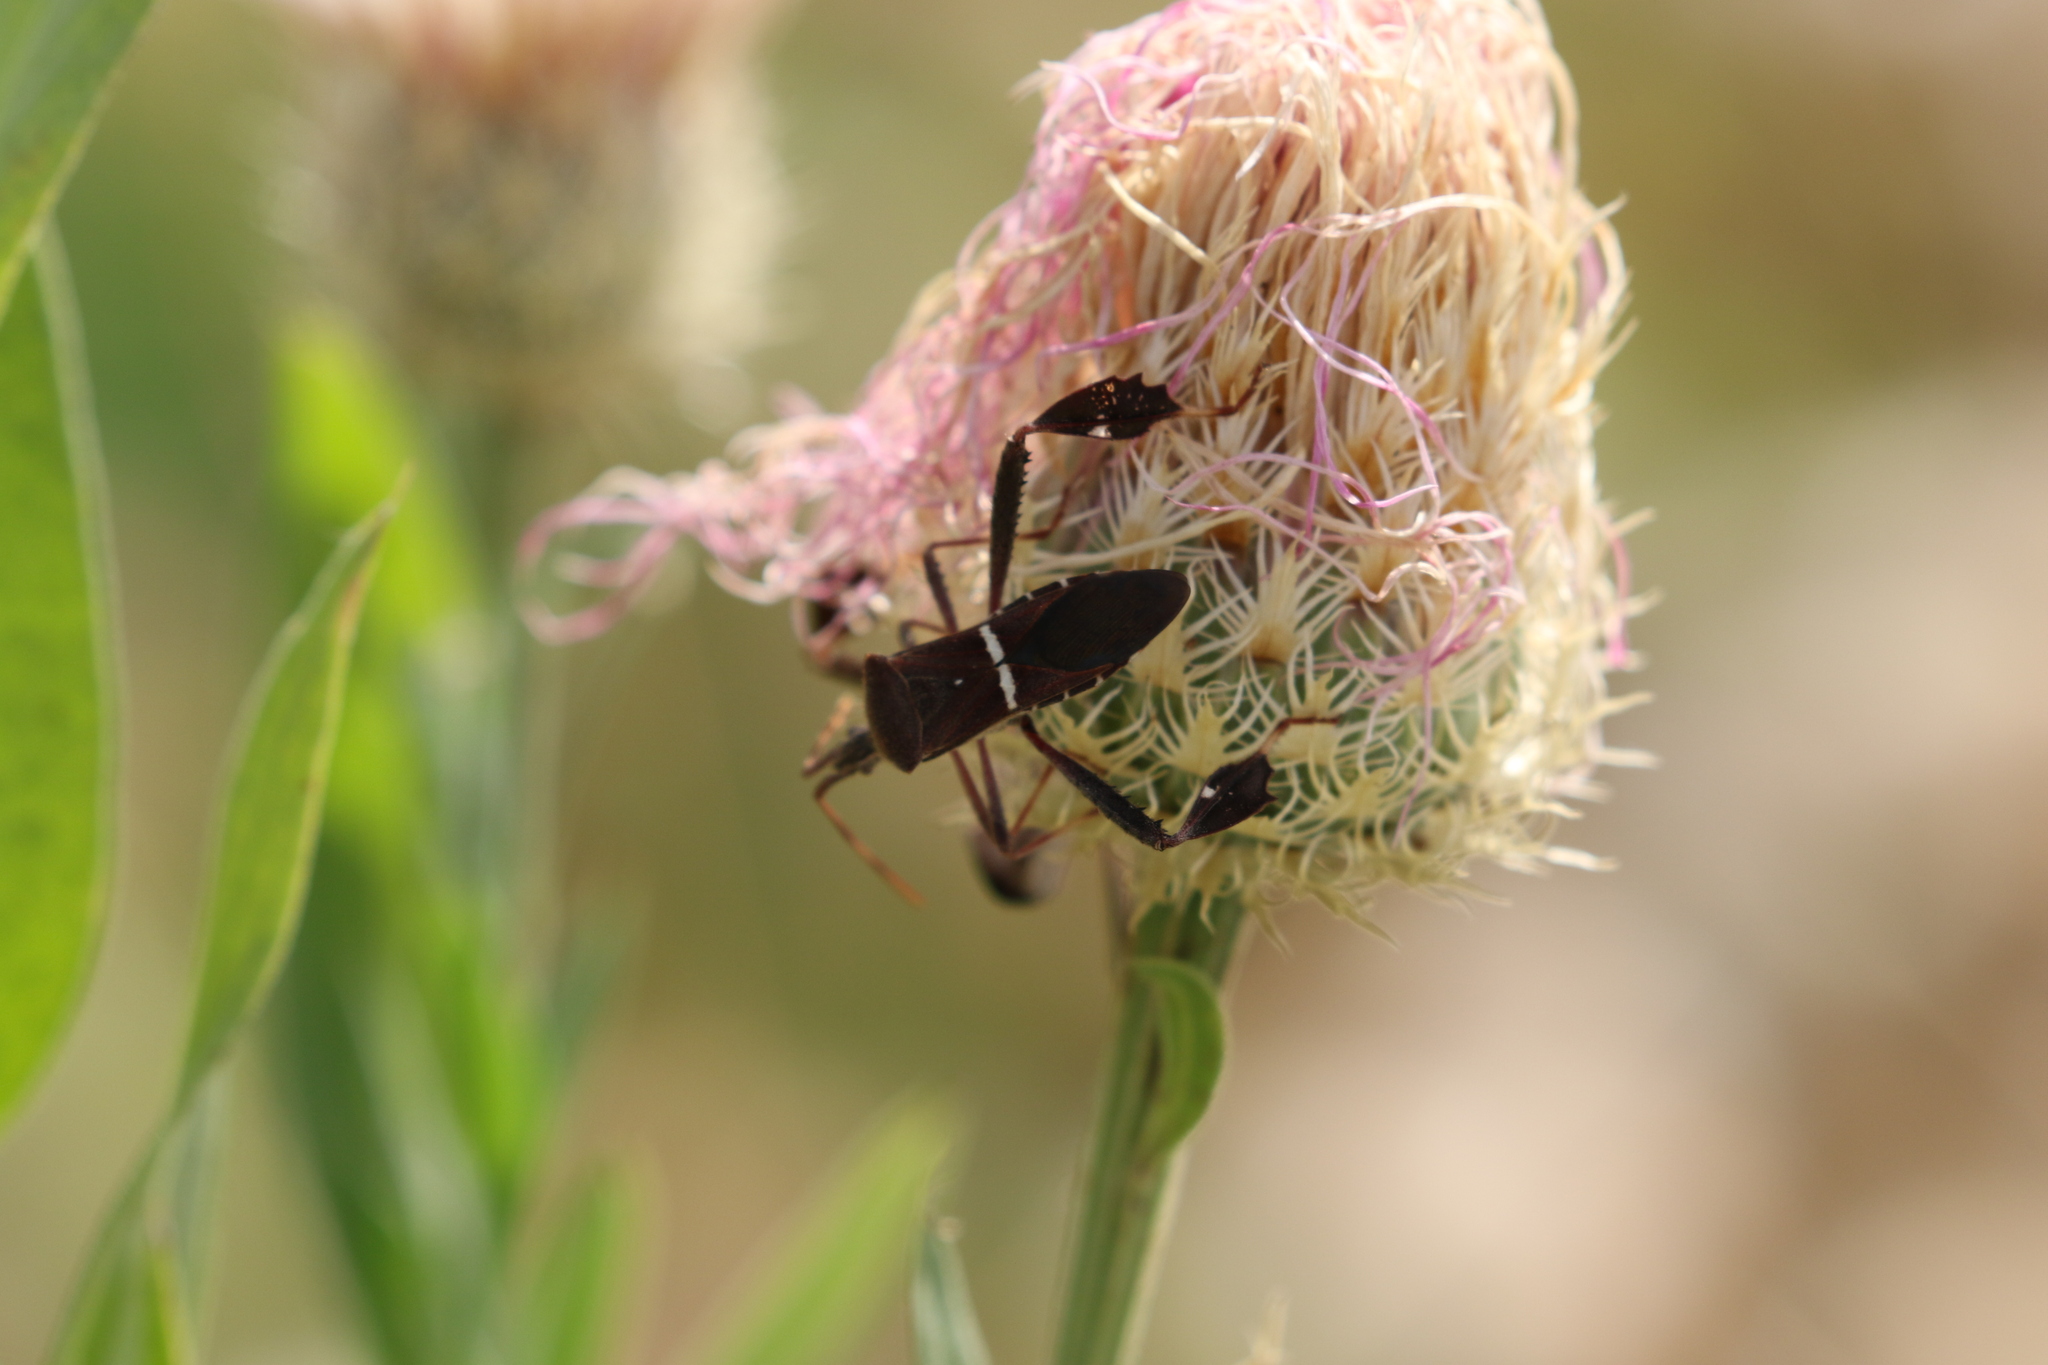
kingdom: Animalia
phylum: Arthropoda
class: Insecta
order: Hemiptera
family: Coreidae
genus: Leptoglossus
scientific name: Leptoglossus phyllopus
